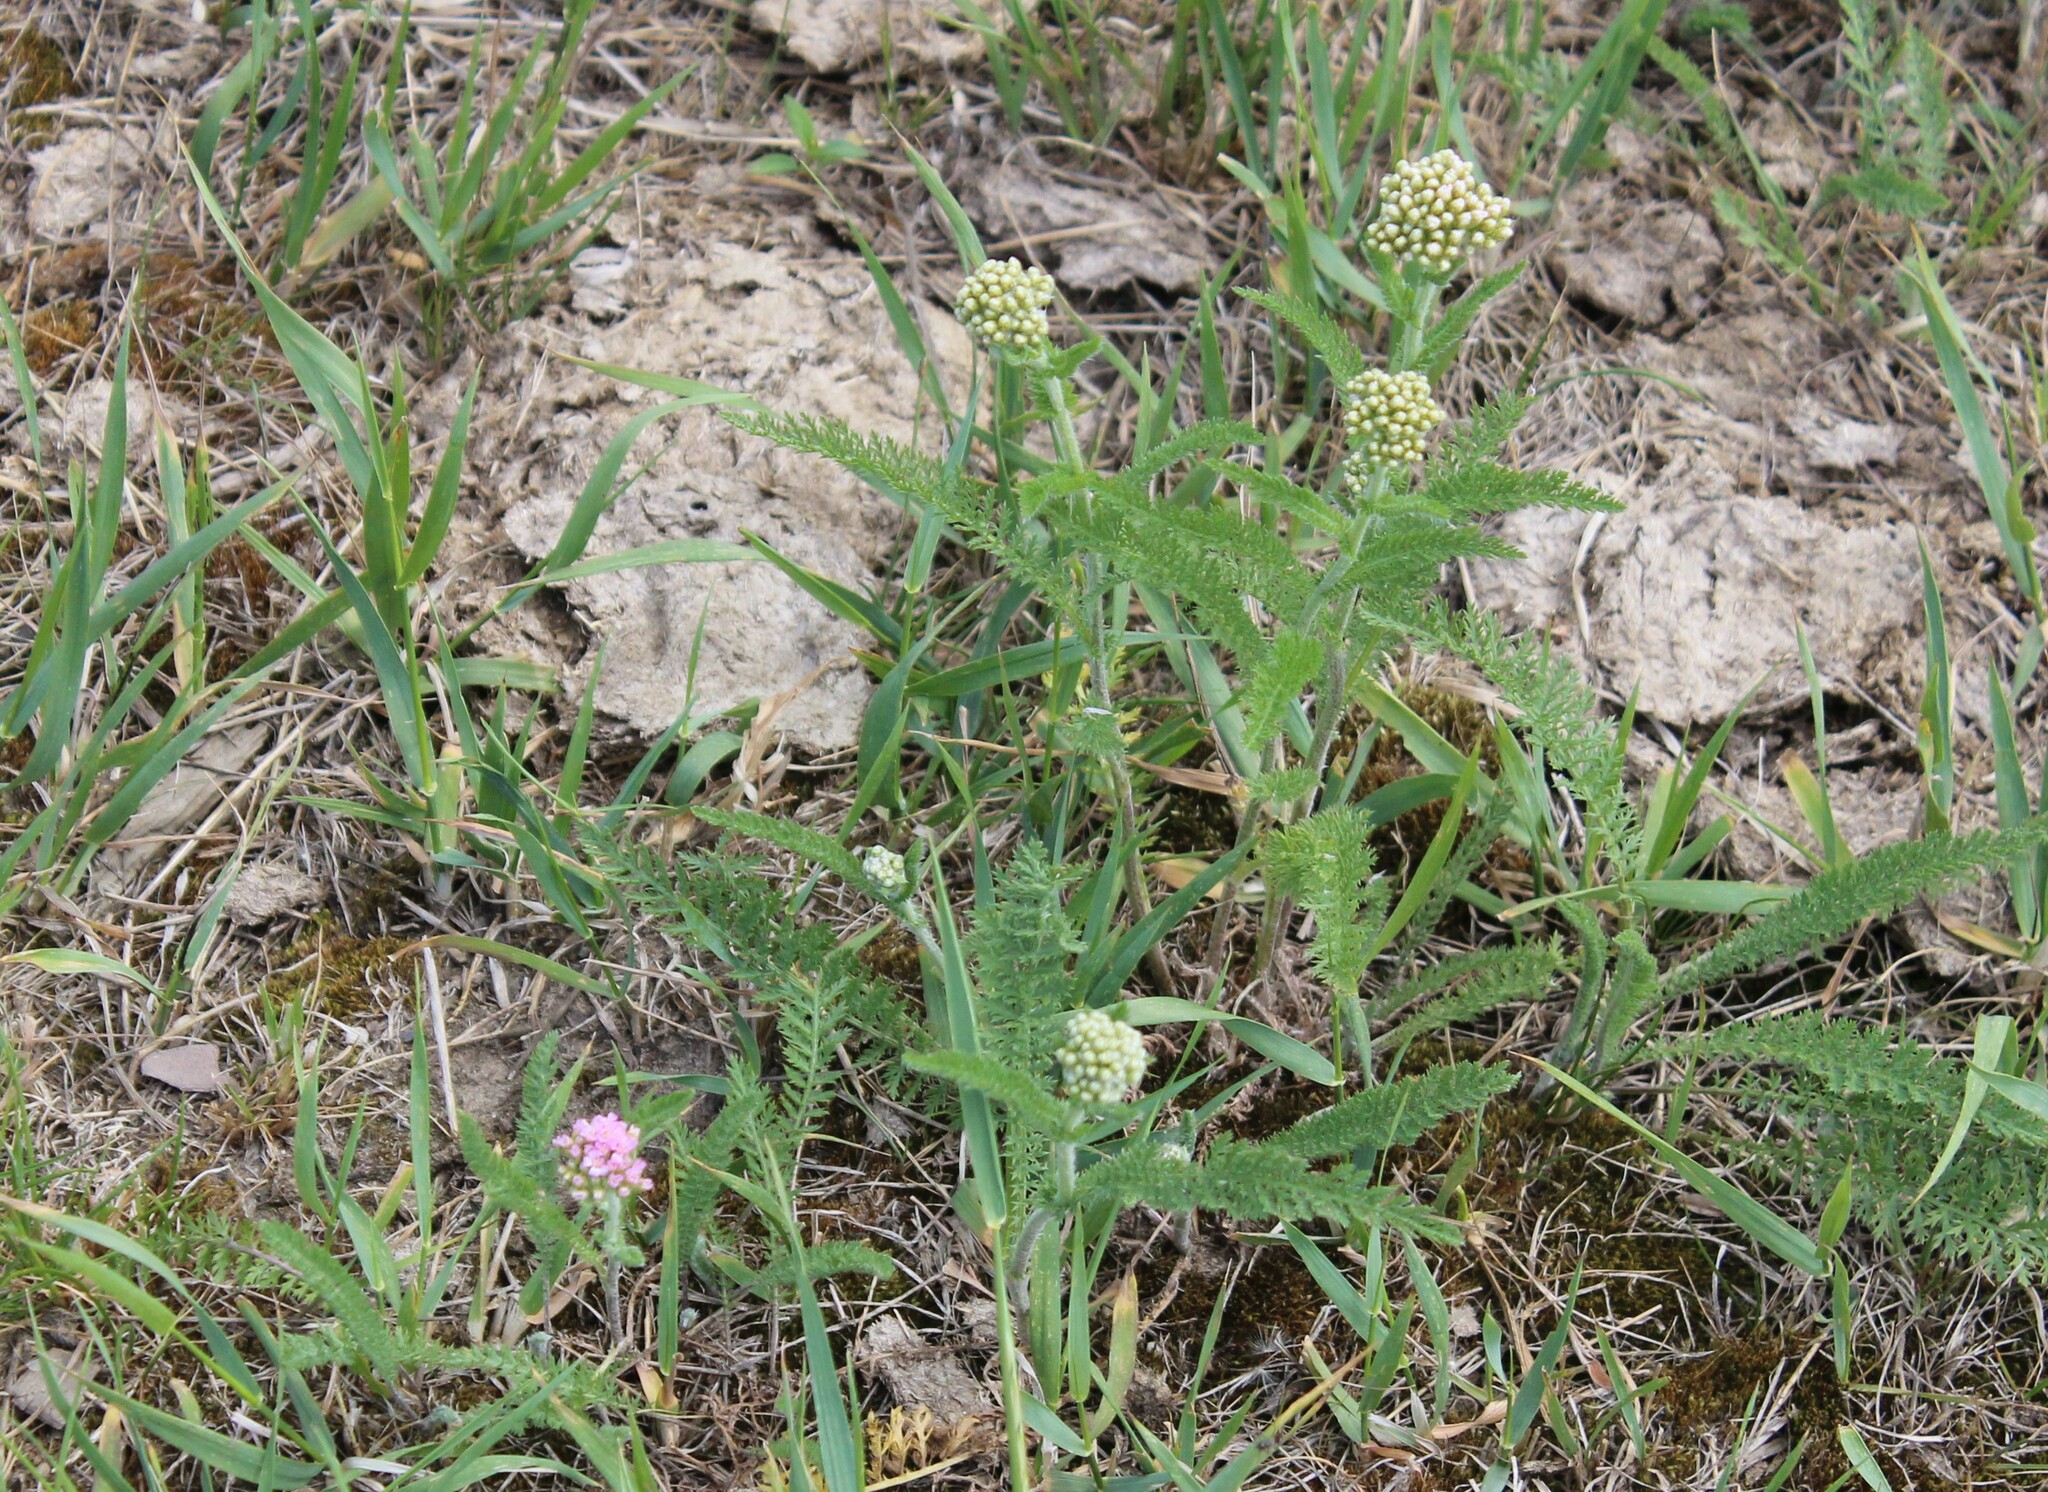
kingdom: Plantae
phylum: Tracheophyta
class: Magnoliopsida
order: Asterales
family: Asteraceae
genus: Achillea
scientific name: Achillea asiatica
